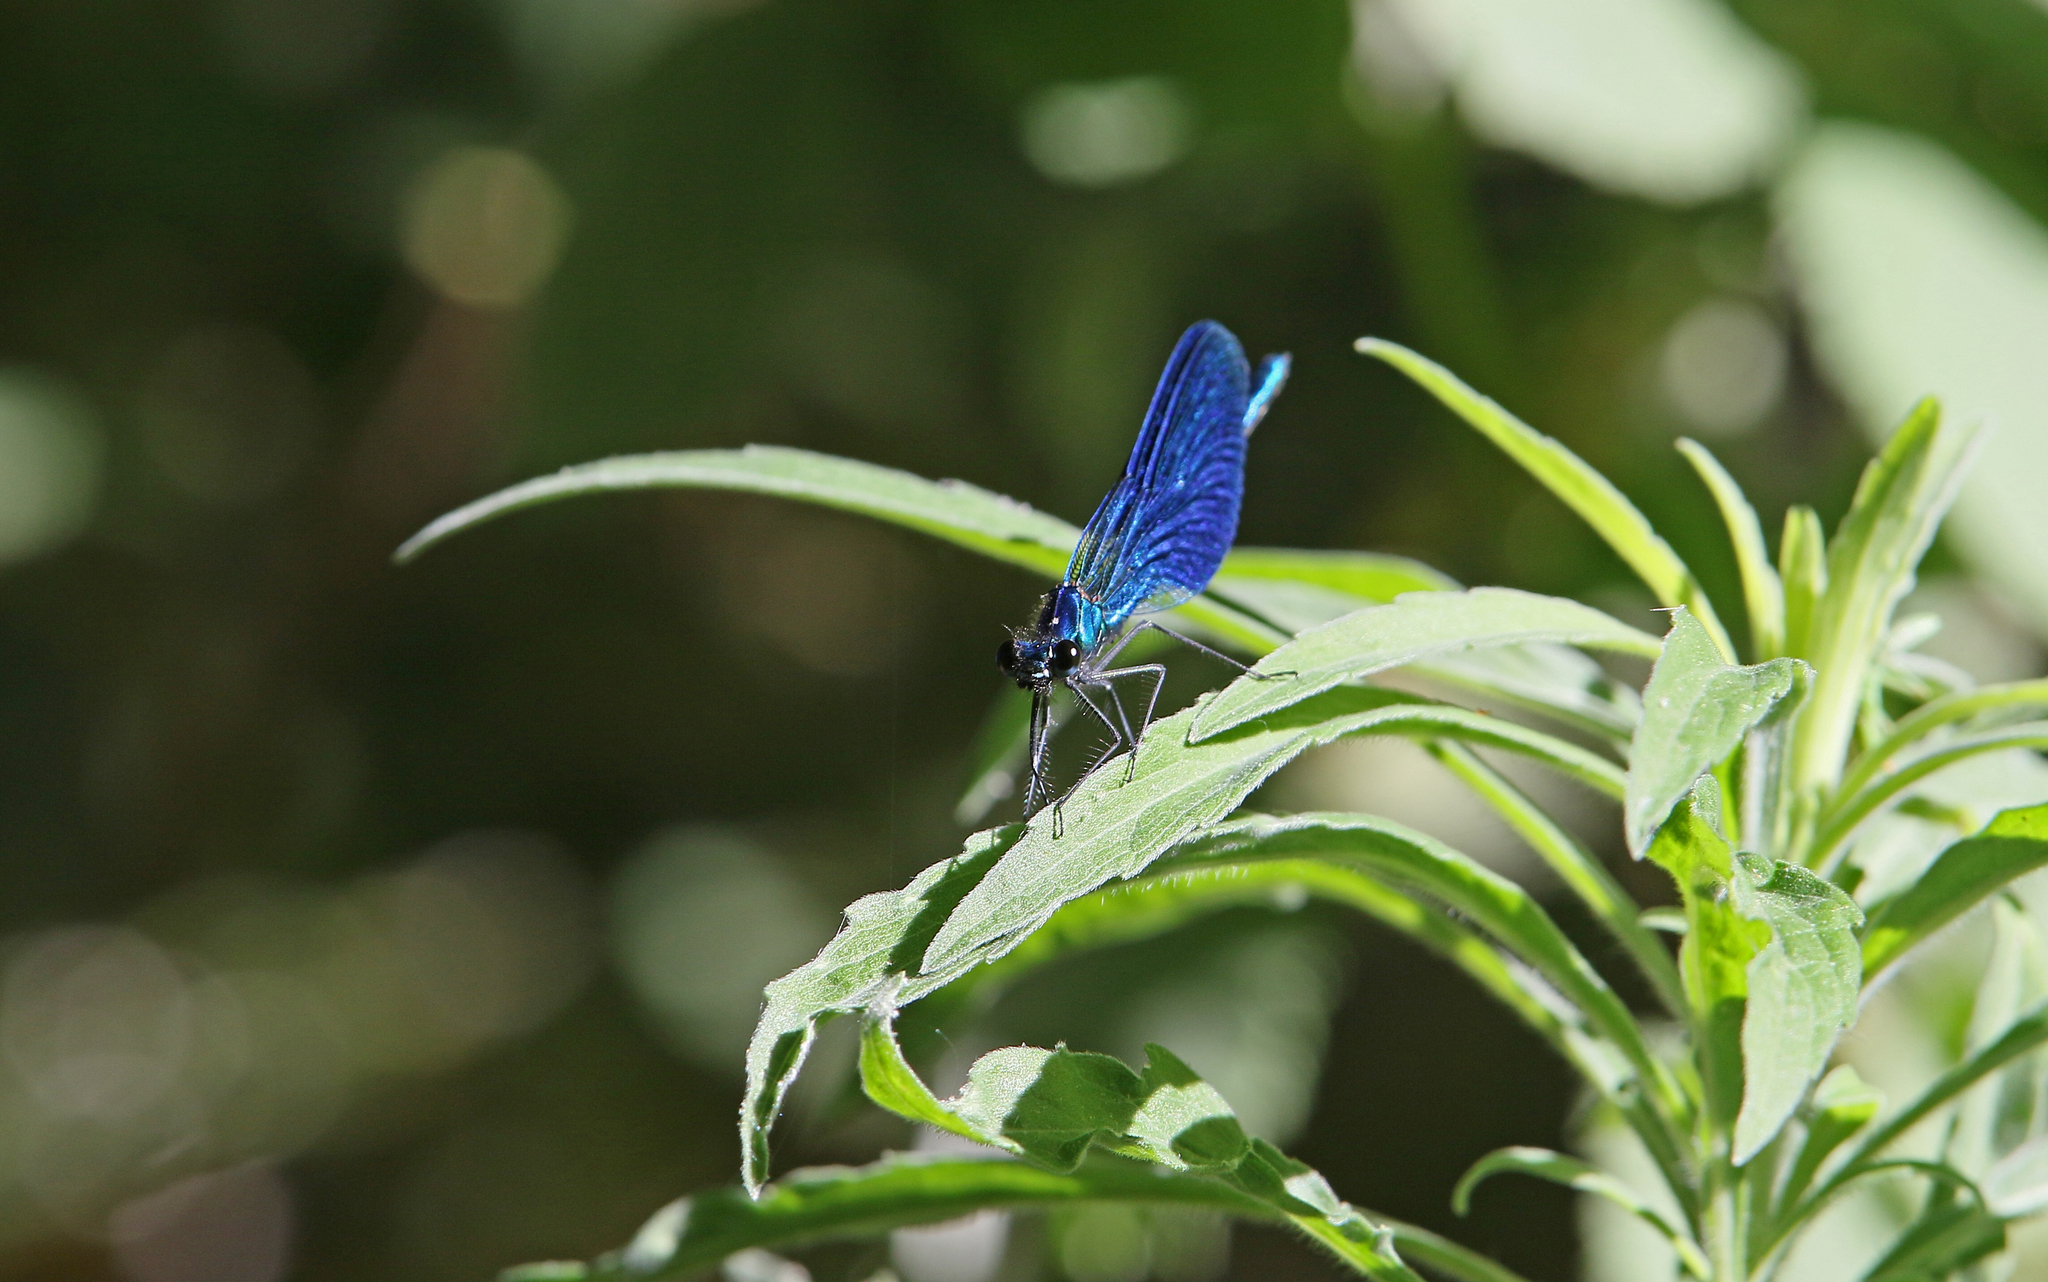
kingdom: Animalia
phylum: Arthropoda
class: Insecta
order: Odonata
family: Calopterygidae
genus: Calopteryx
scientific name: Calopteryx splendens
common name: Banded demoiselle
